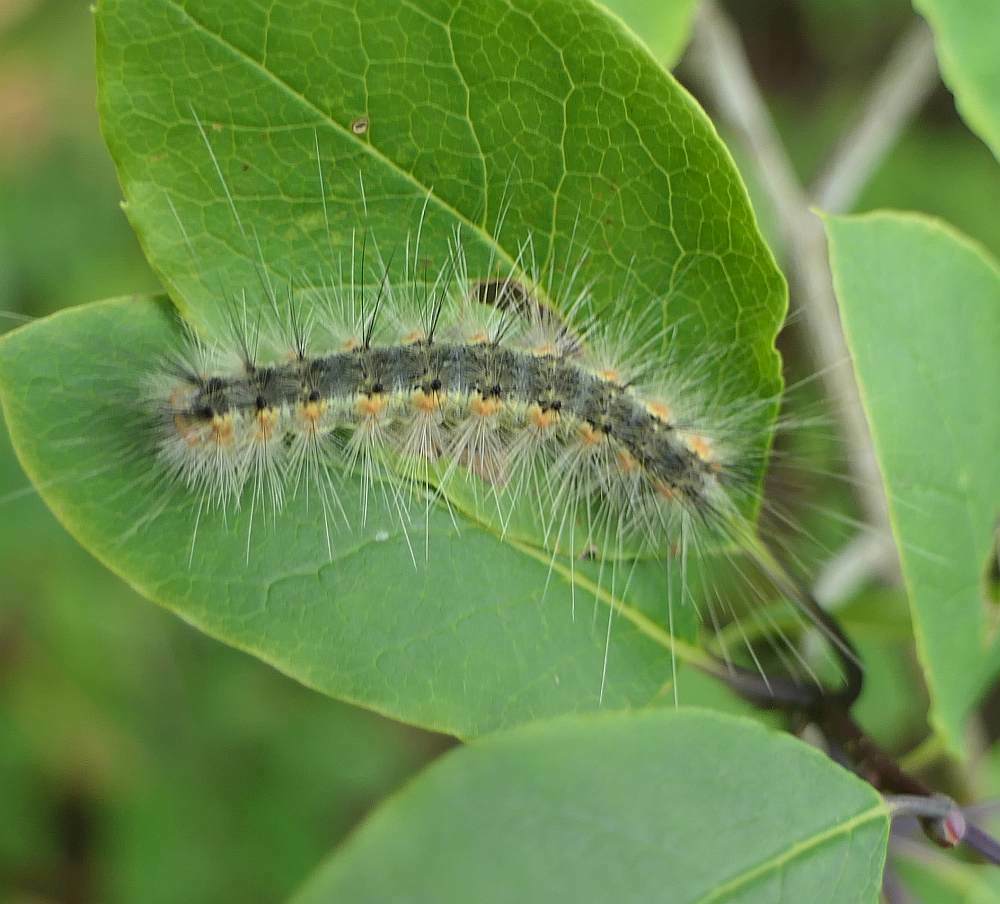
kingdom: Animalia
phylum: Arthropoda
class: Insecta
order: Lepidoptera
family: Erebidae
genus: Hyphantria
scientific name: Hyphantria cunea
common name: American white moth
